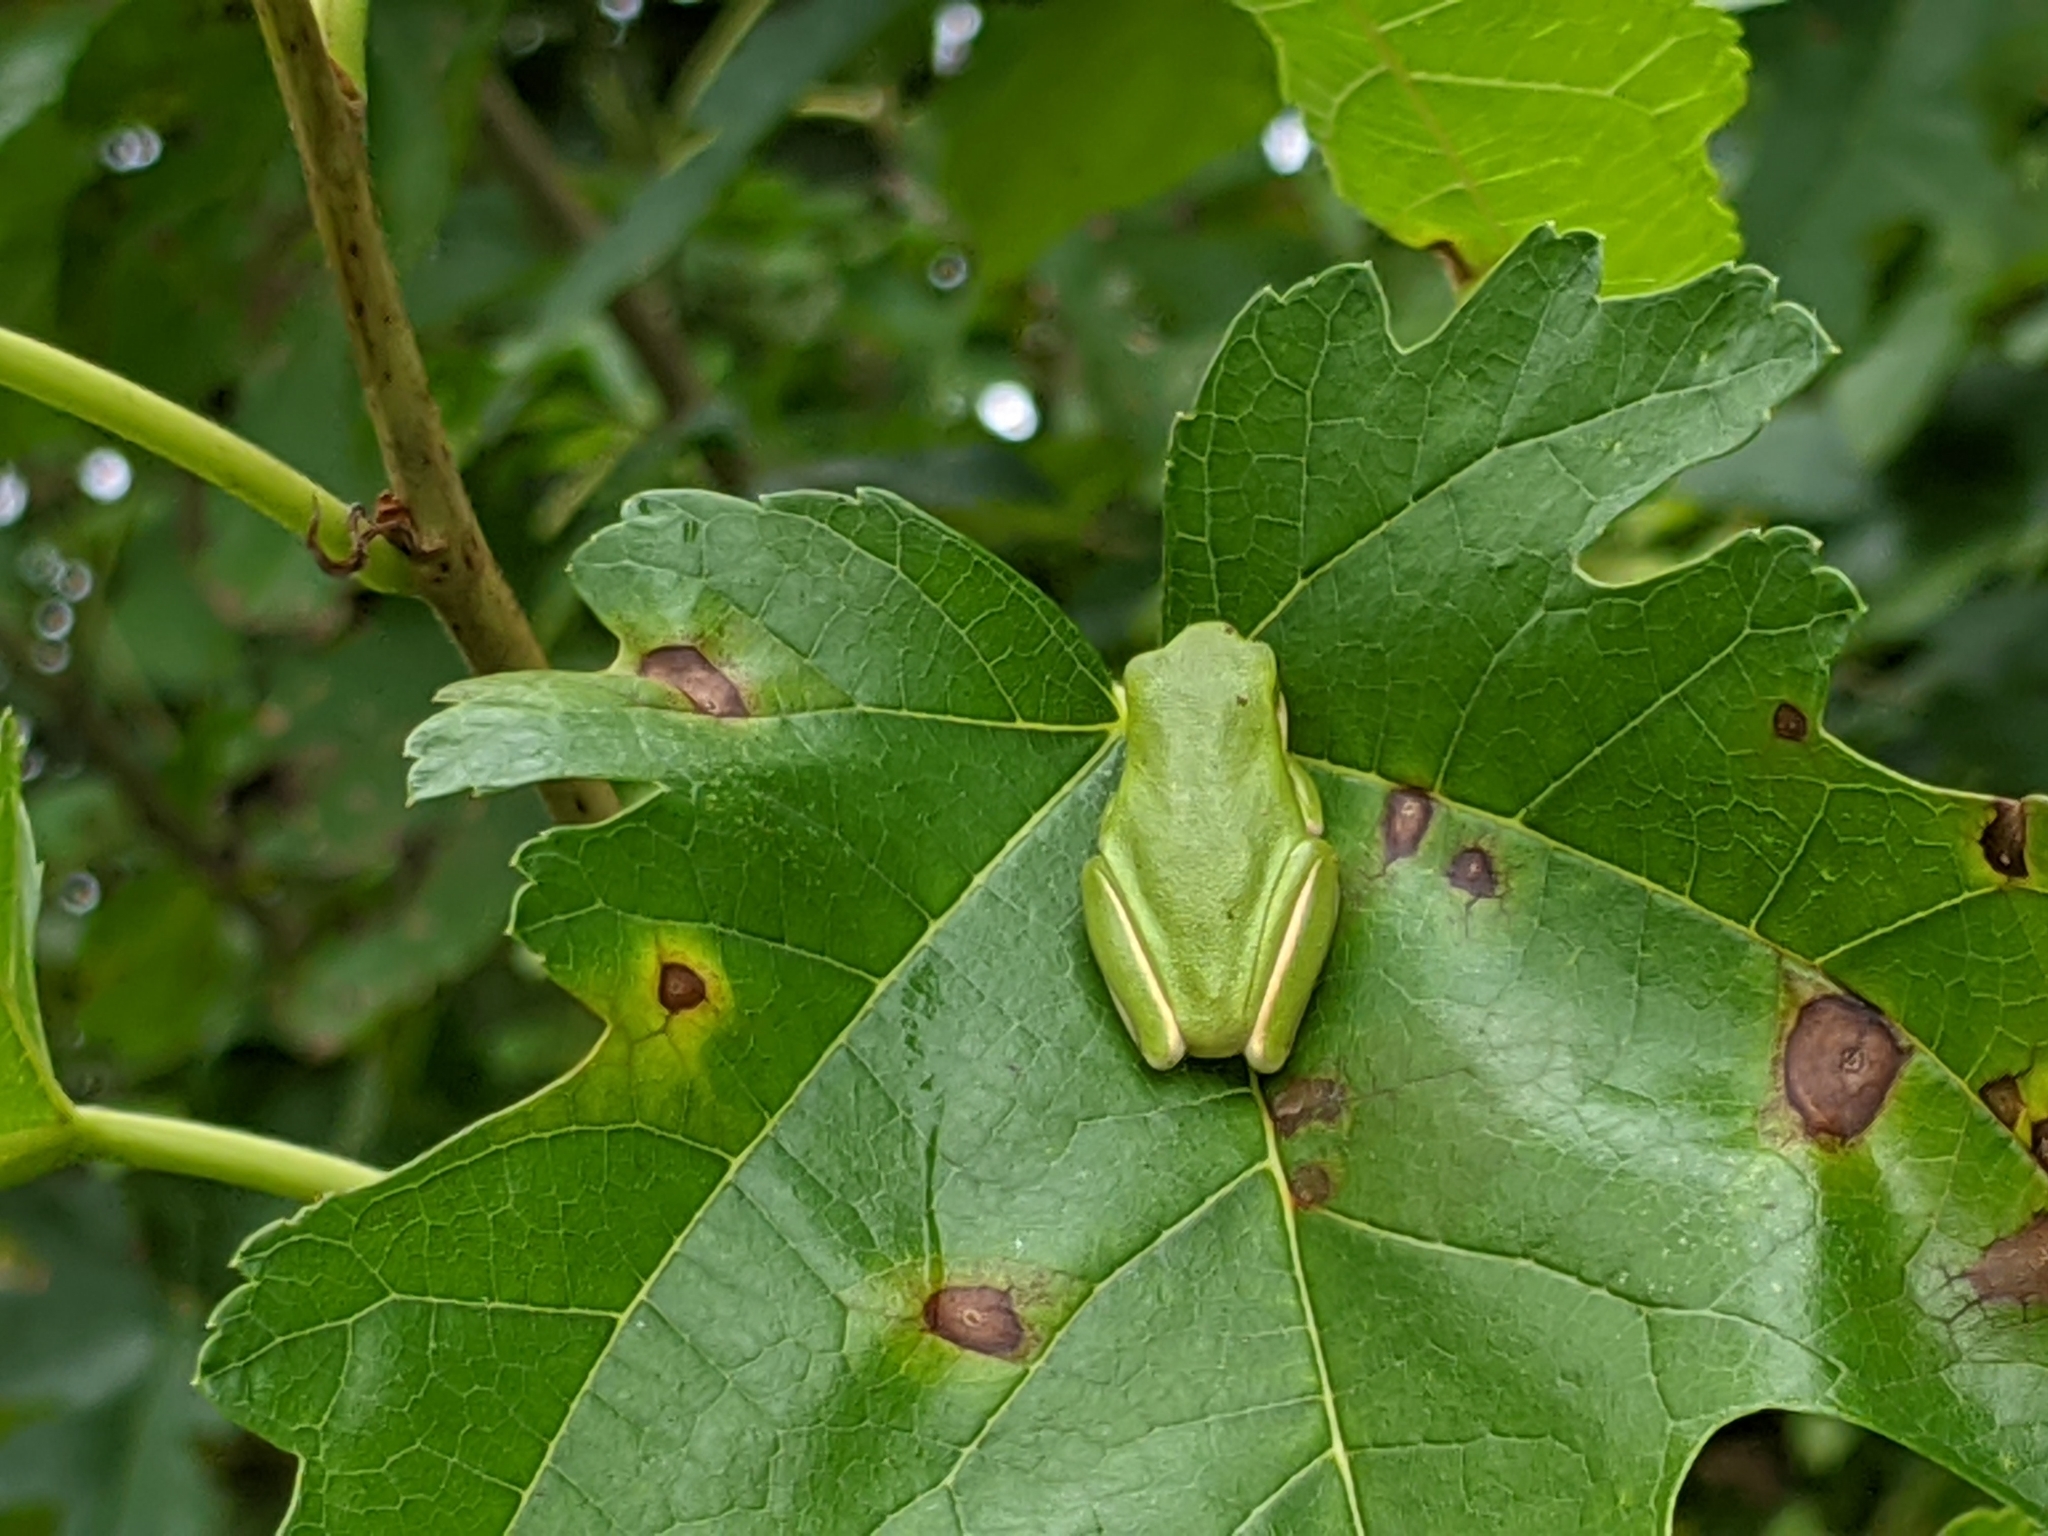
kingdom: Animalia
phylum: Chordata
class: Amphibia
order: Anura
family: Hylidae
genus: Dryophytes
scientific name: Dryophytes cinereus
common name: Green treefrog
